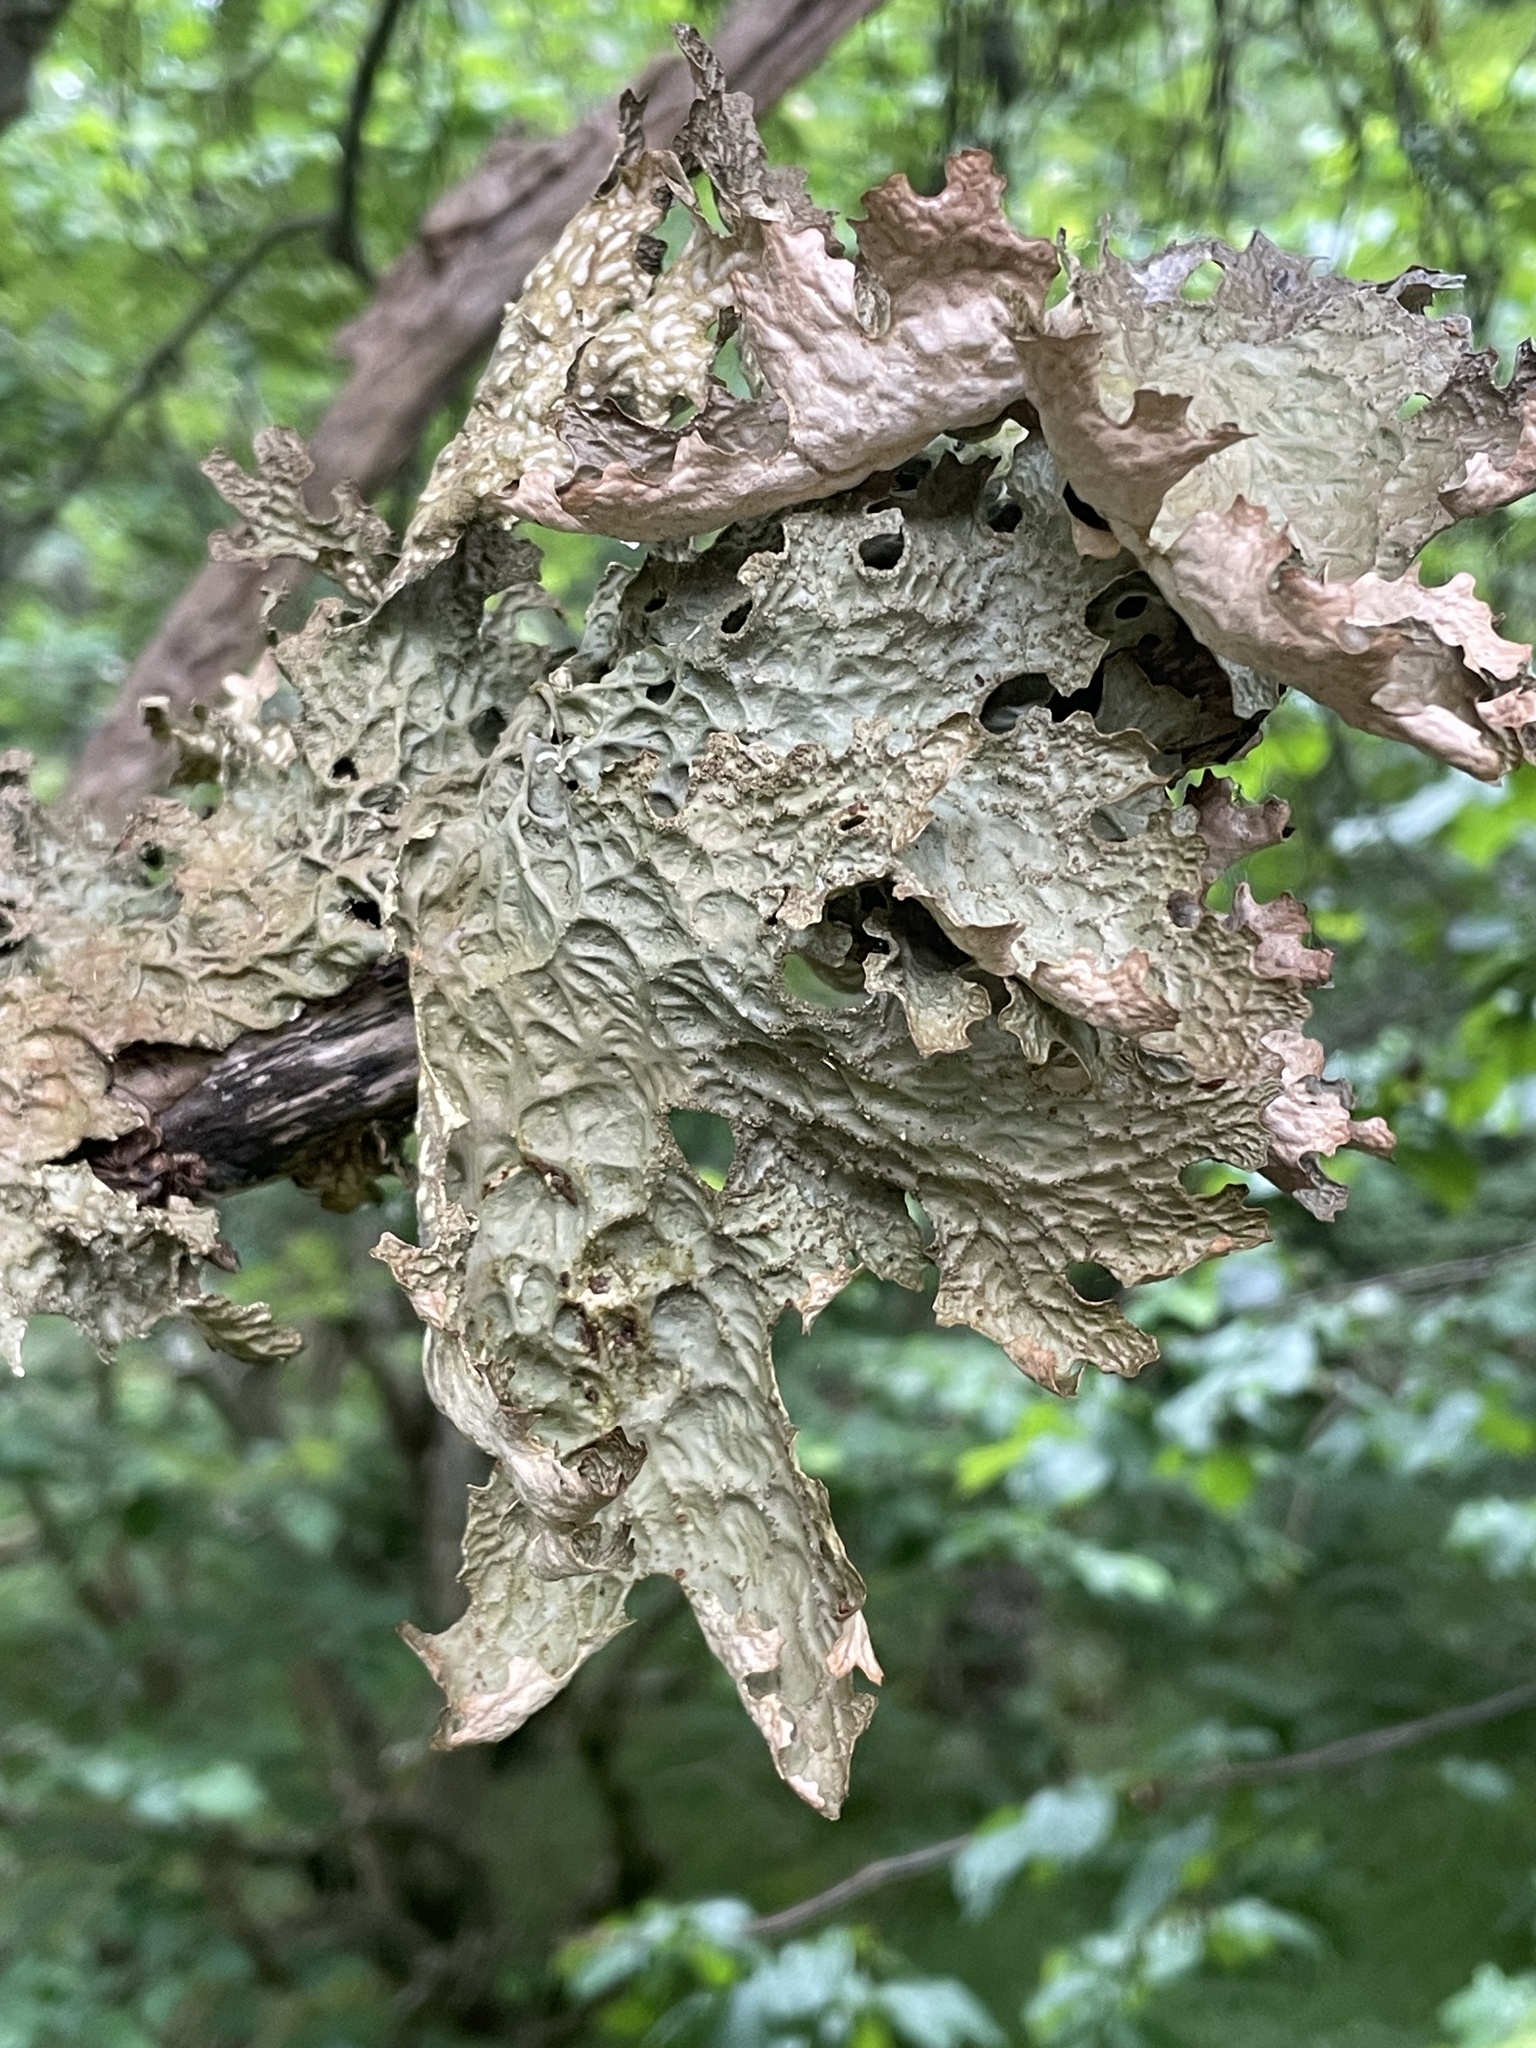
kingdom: Fungi
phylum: Ascomycota
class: Lecanoromycetes
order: Peltigerales
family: Lobariaceae
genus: Lobaria
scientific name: Lobaria pulmonaria
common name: Lungwort
